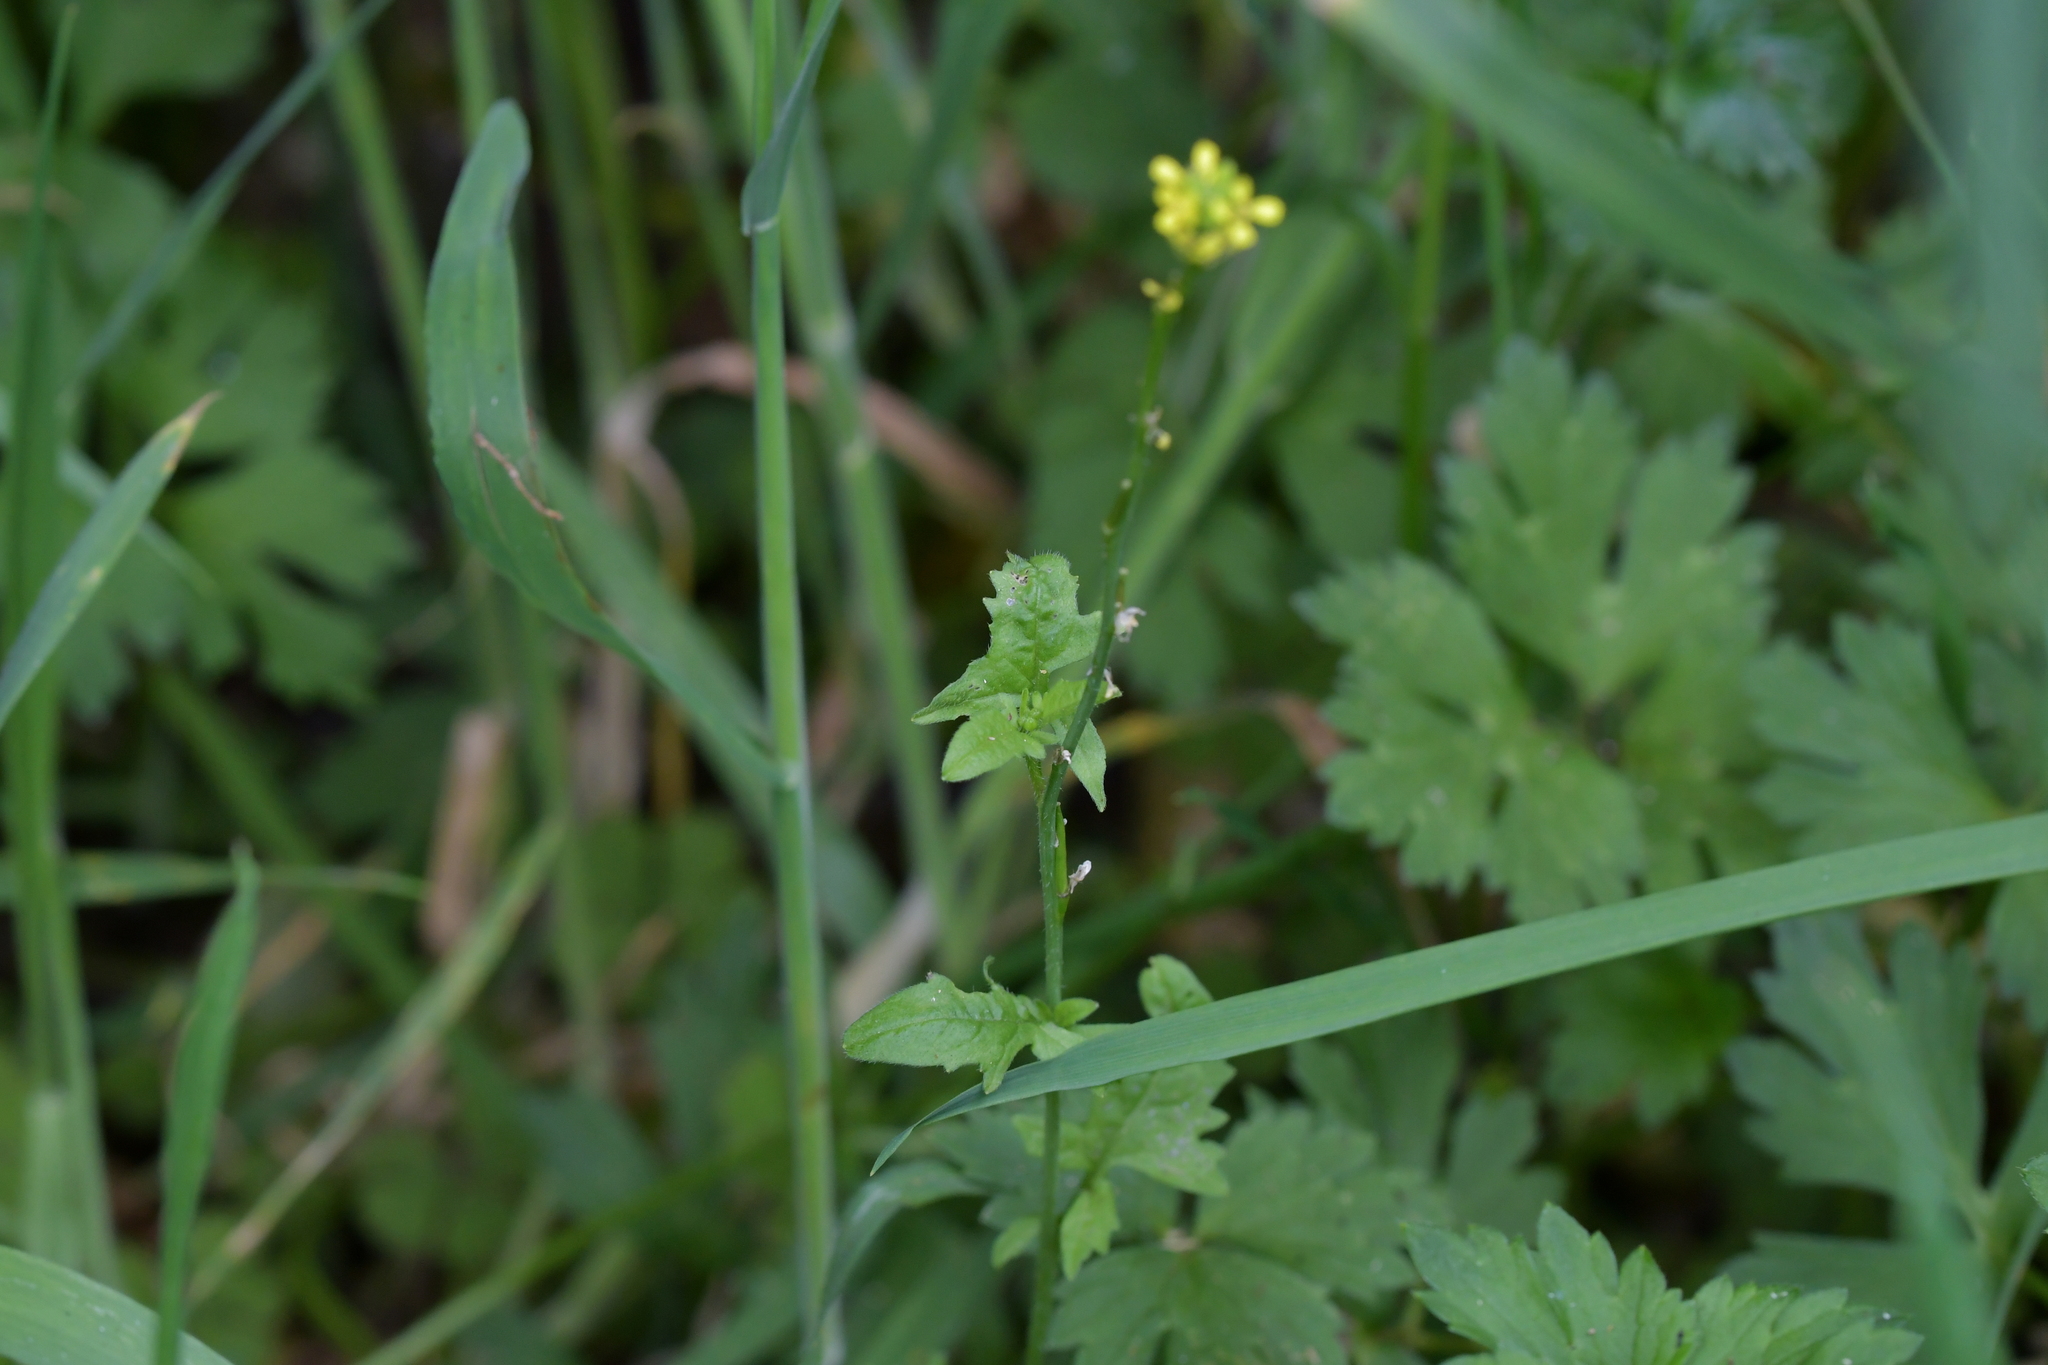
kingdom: Plantae
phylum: Tracheophyta
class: Magnoliopsida
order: Brassicales
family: Brassicaceae
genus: Sisymbrium
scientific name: Sisymbrium officinale
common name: Hedge mustard
